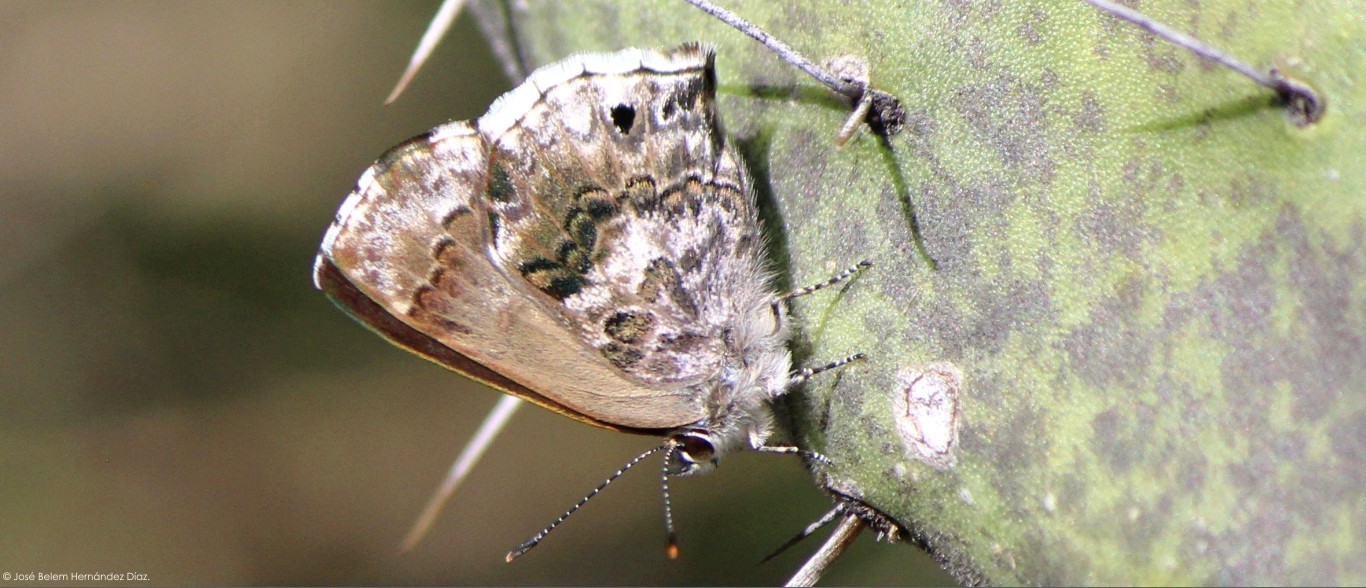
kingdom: Animalia
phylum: Arthropoda
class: Insecta
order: Lepidoptera
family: Lycaenidae
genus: Thecla
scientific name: Thecla cestri
